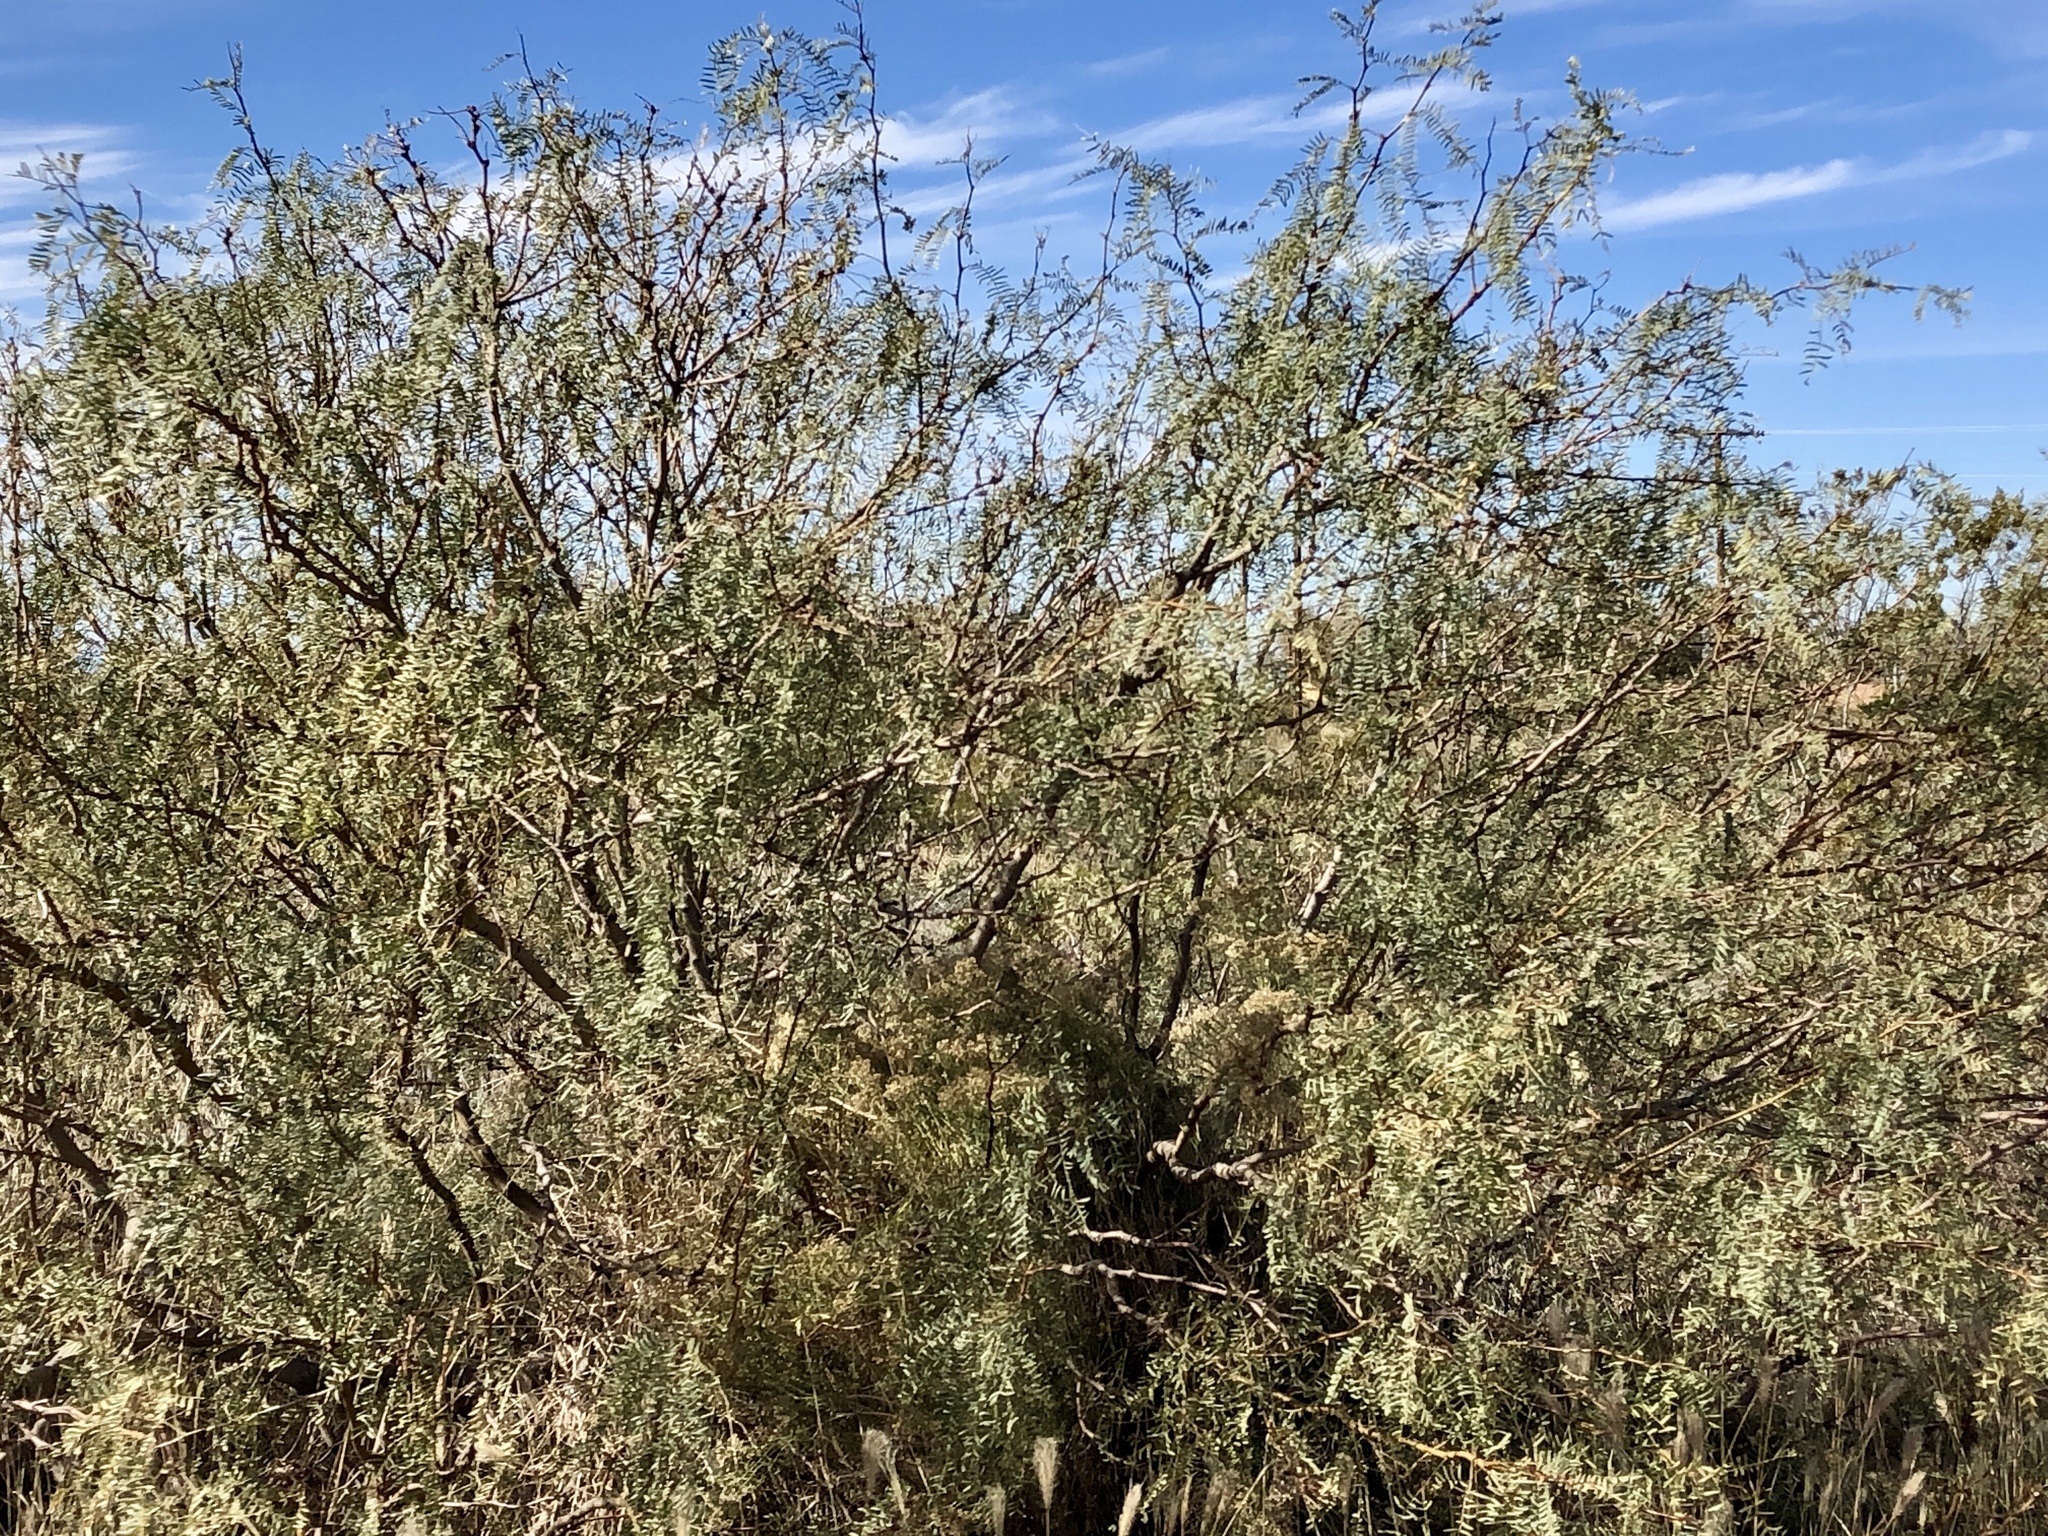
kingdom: Plantae
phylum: Tracheophyta
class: Magnoliopsida
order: Fabales
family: Fabaceae
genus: Prosopis
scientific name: Prosopis glandulosa
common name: Honey mesquite
